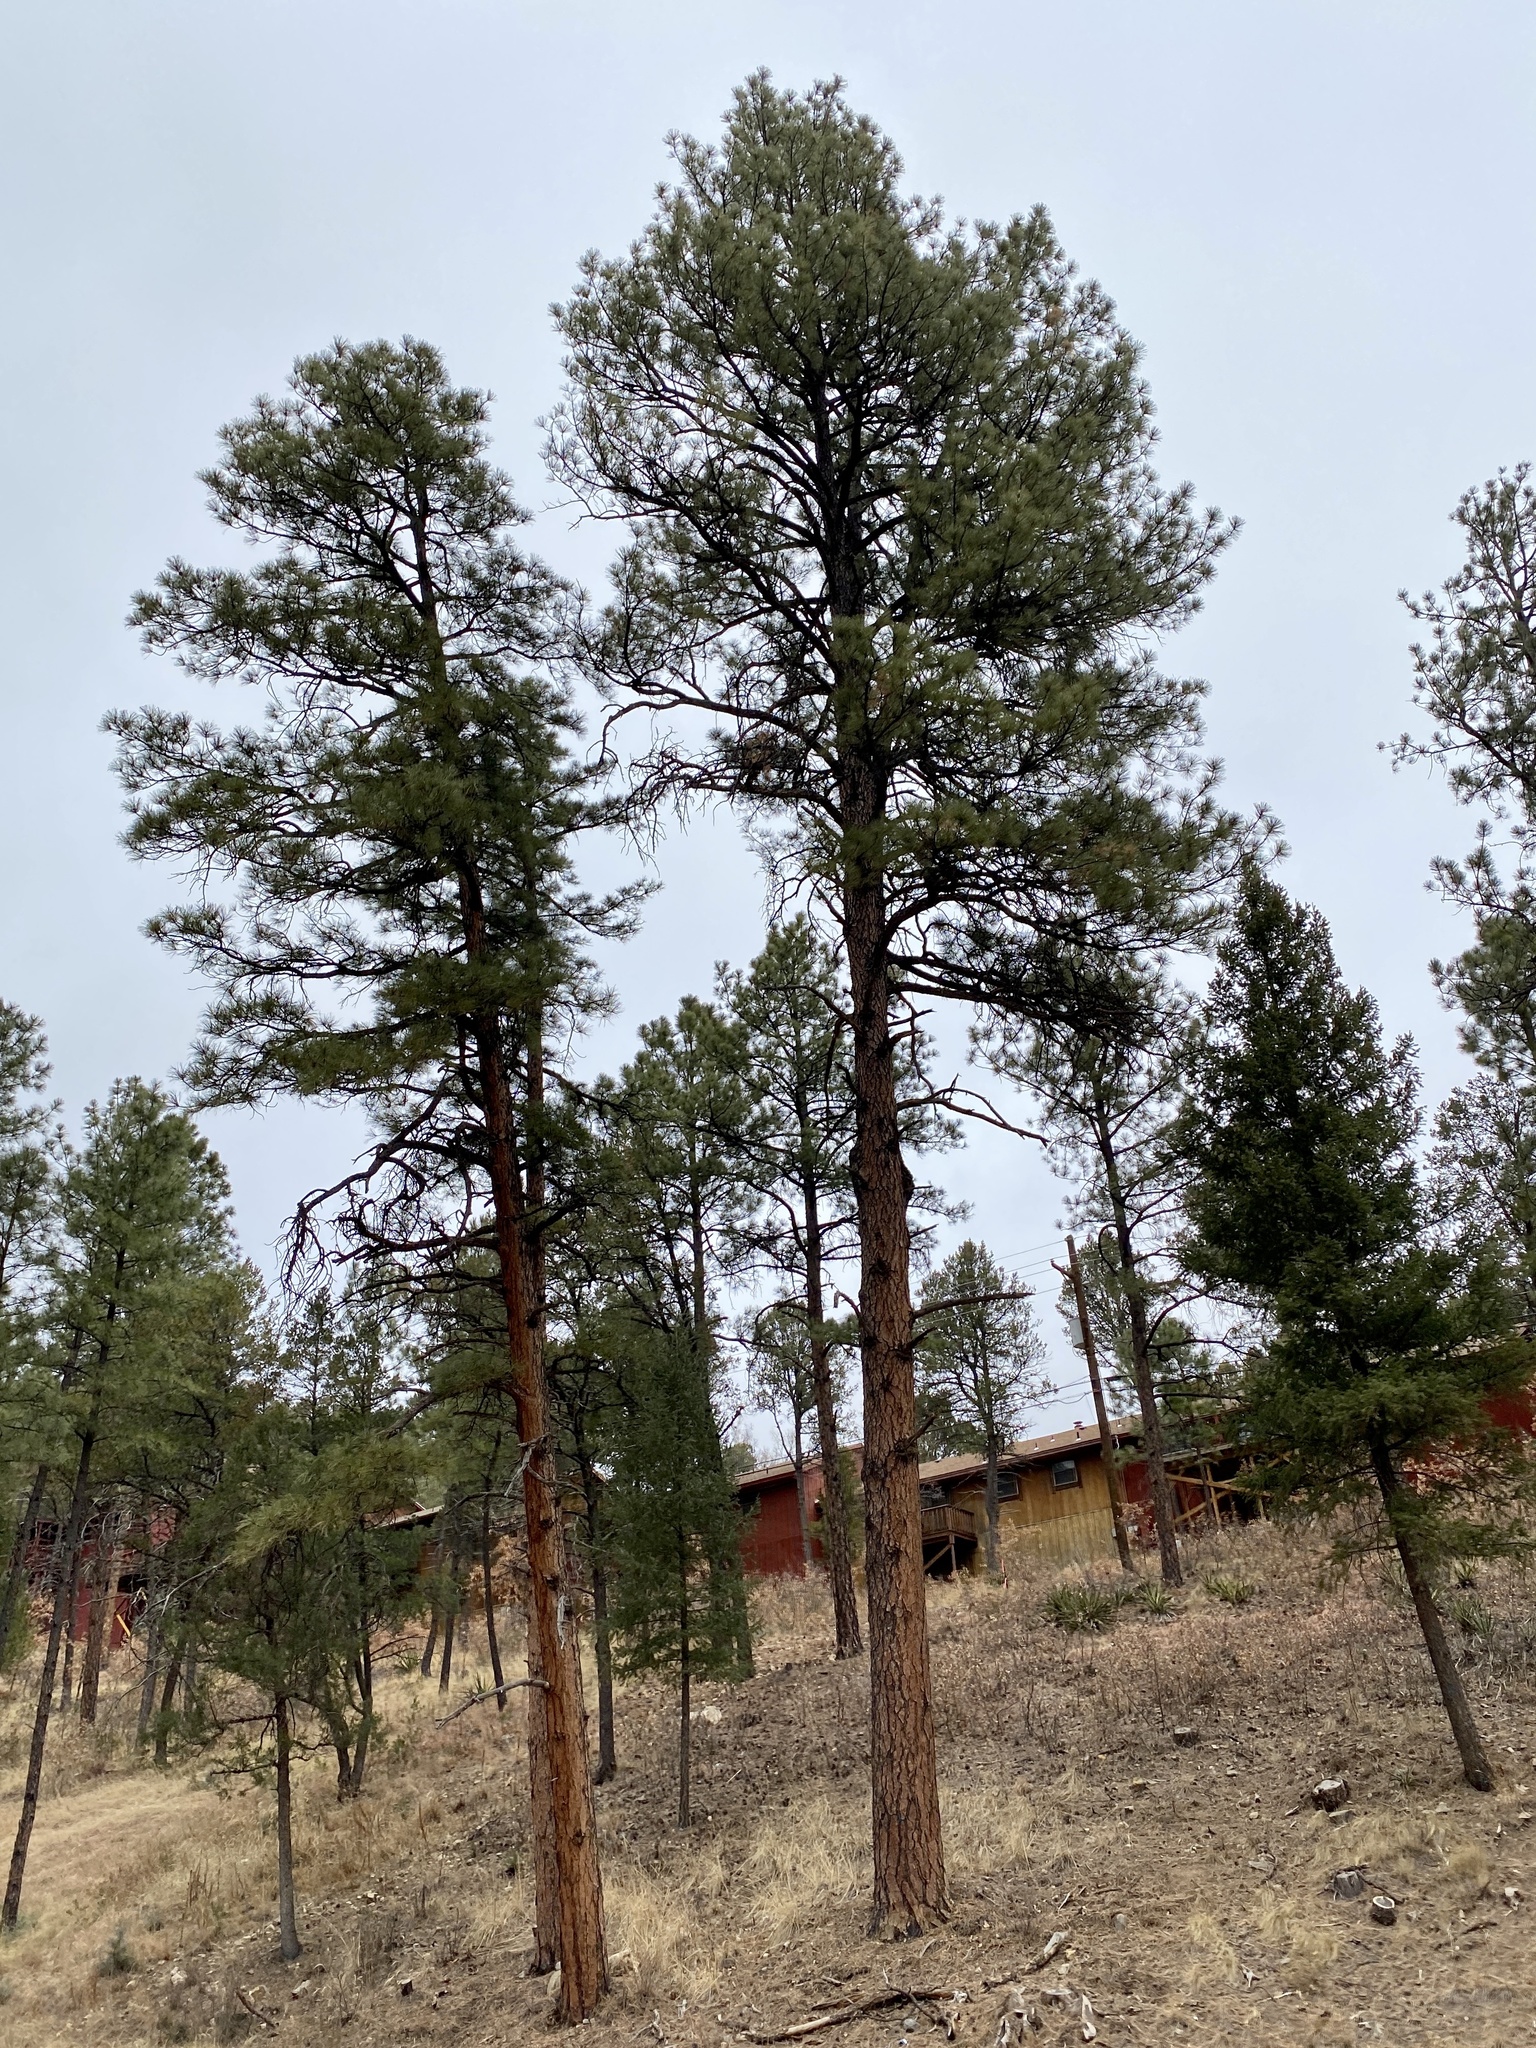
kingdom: Plantae
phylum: Tracheophyta
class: Pinopsida
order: Pinales
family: Pinaceae
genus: Pinus
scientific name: Pinus ponderosa
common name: Western yellow-pine
